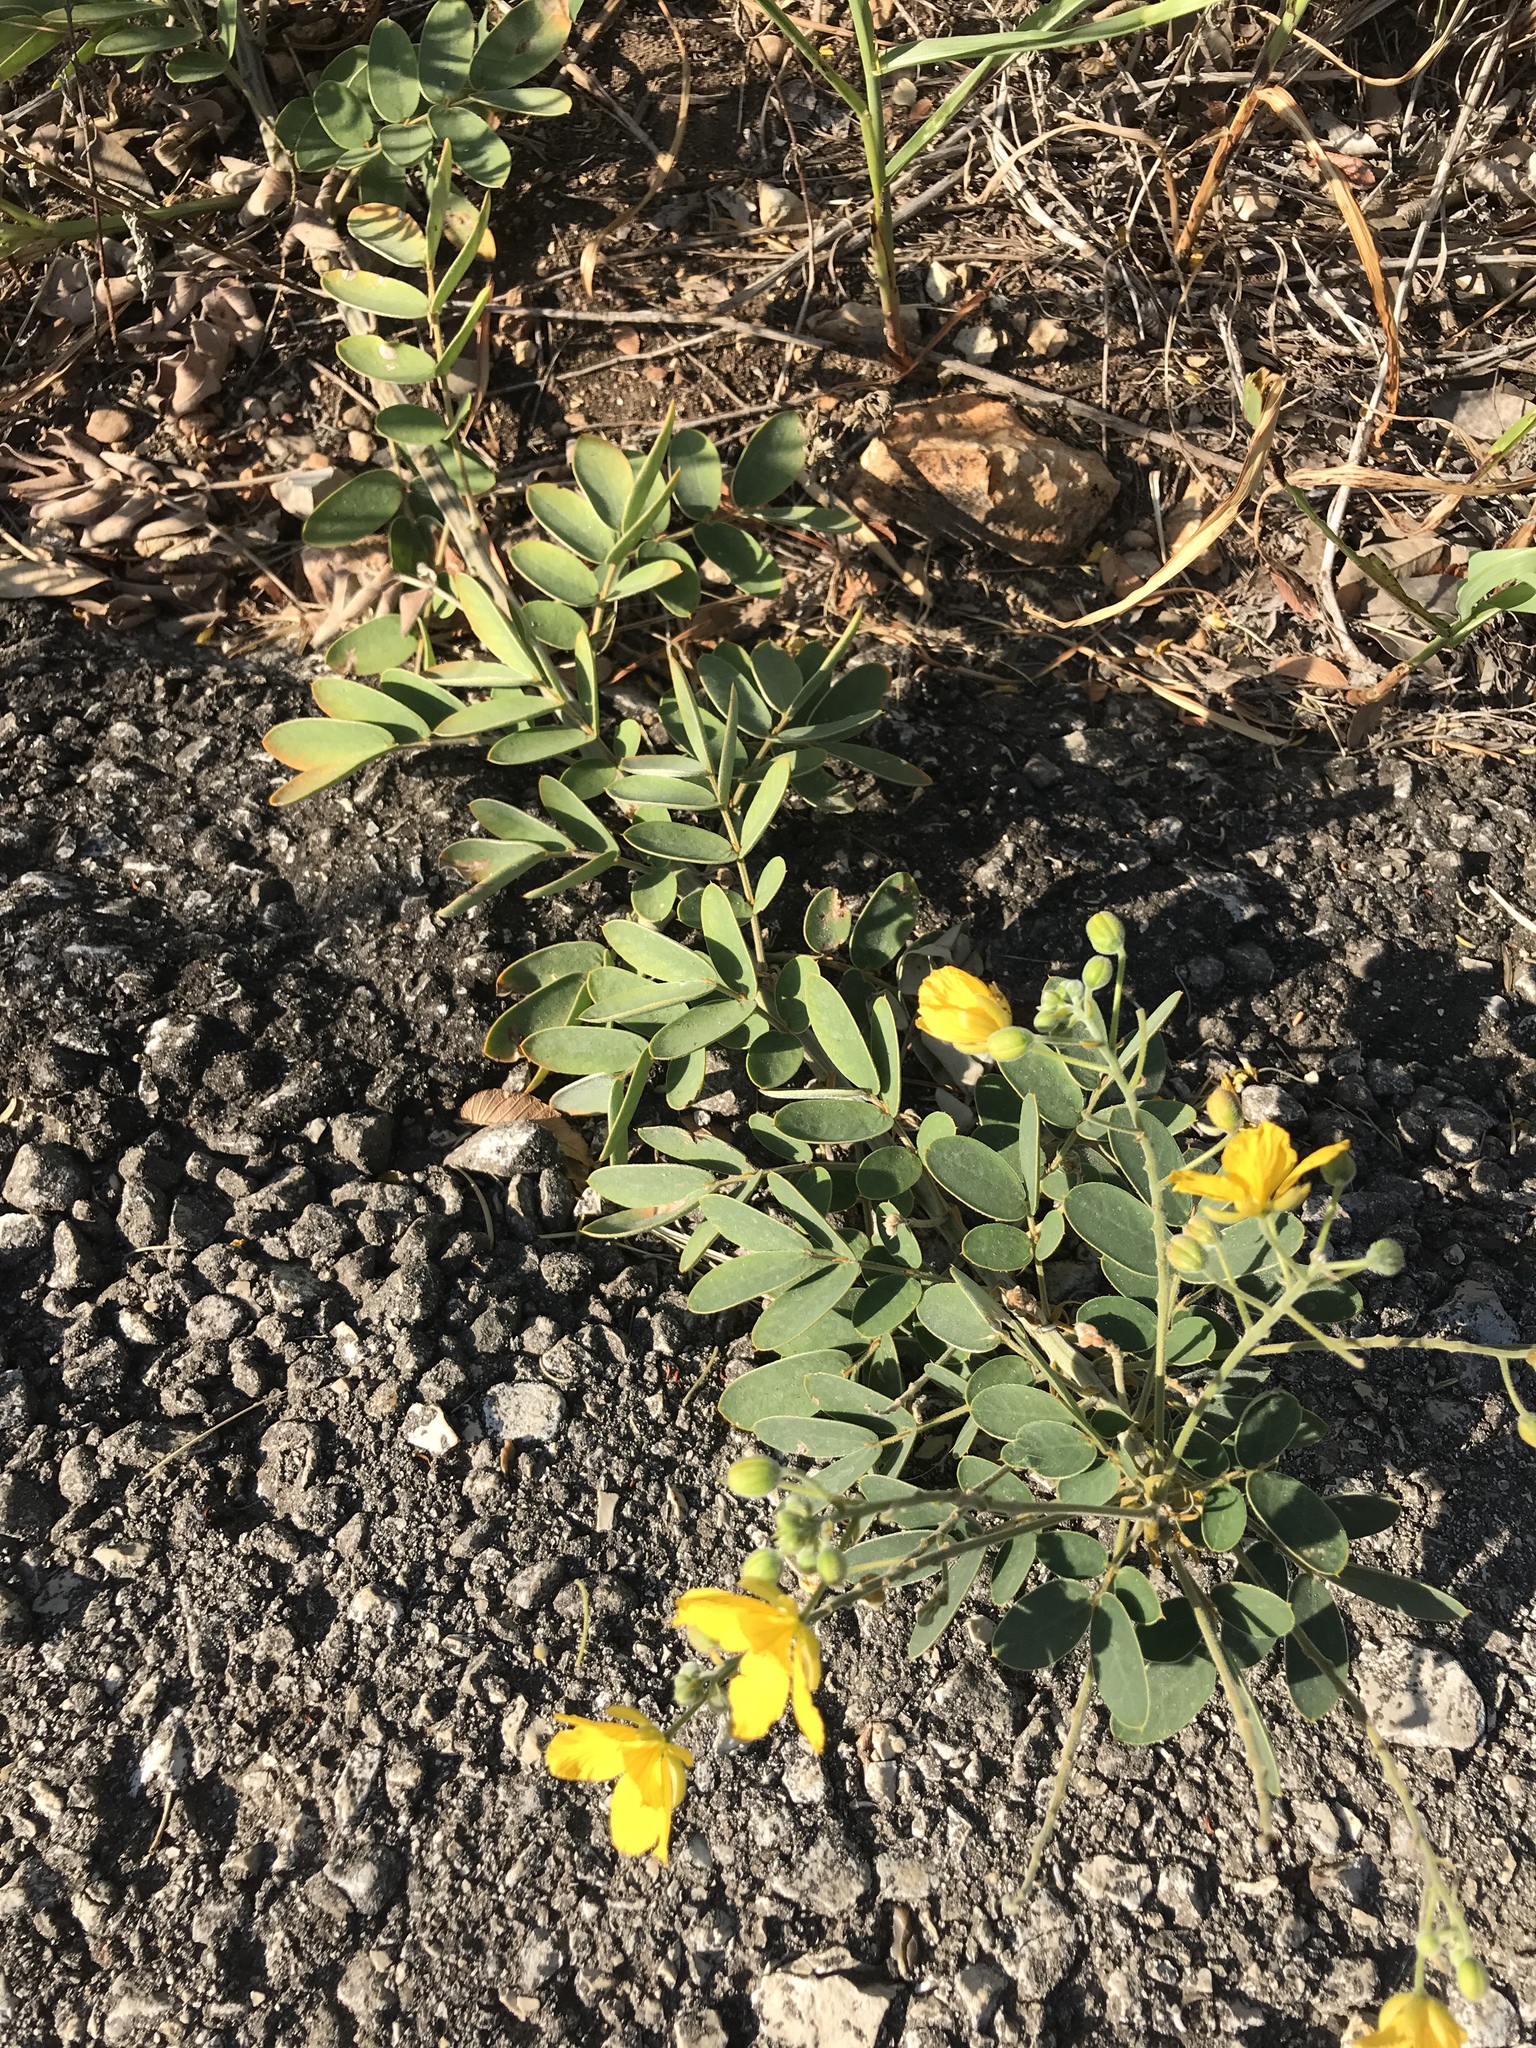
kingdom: Plantae
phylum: Tracheophyta
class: Magnoliopsida
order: Fabales
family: Fabaceae
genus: Senna
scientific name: Senna lindheimeriana
